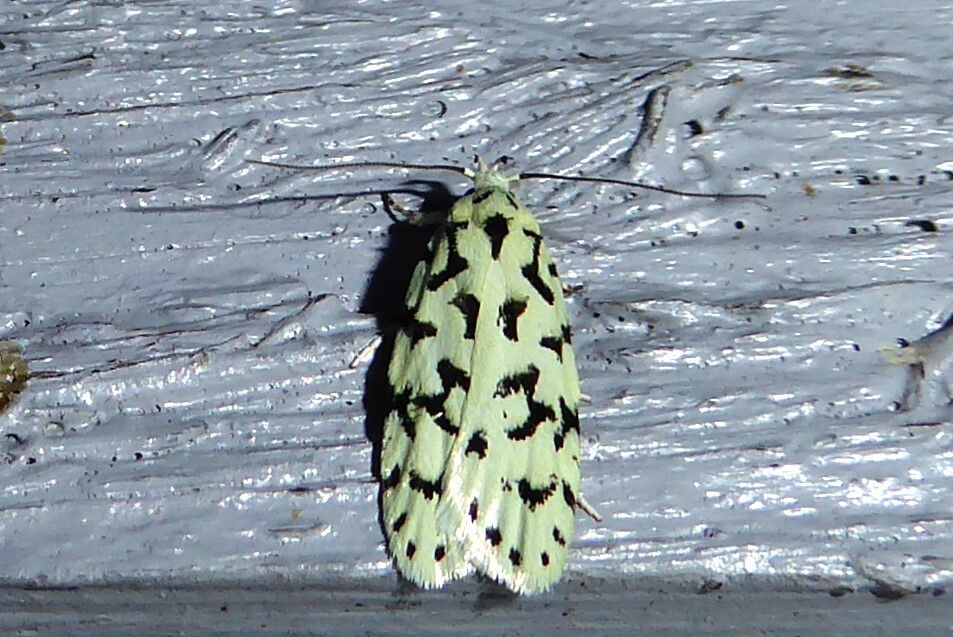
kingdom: Animalia
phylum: Arthropoda
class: Insecta
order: Lepidoptera
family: Oecophoridae
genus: Izatha
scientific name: Izatha huttoni
